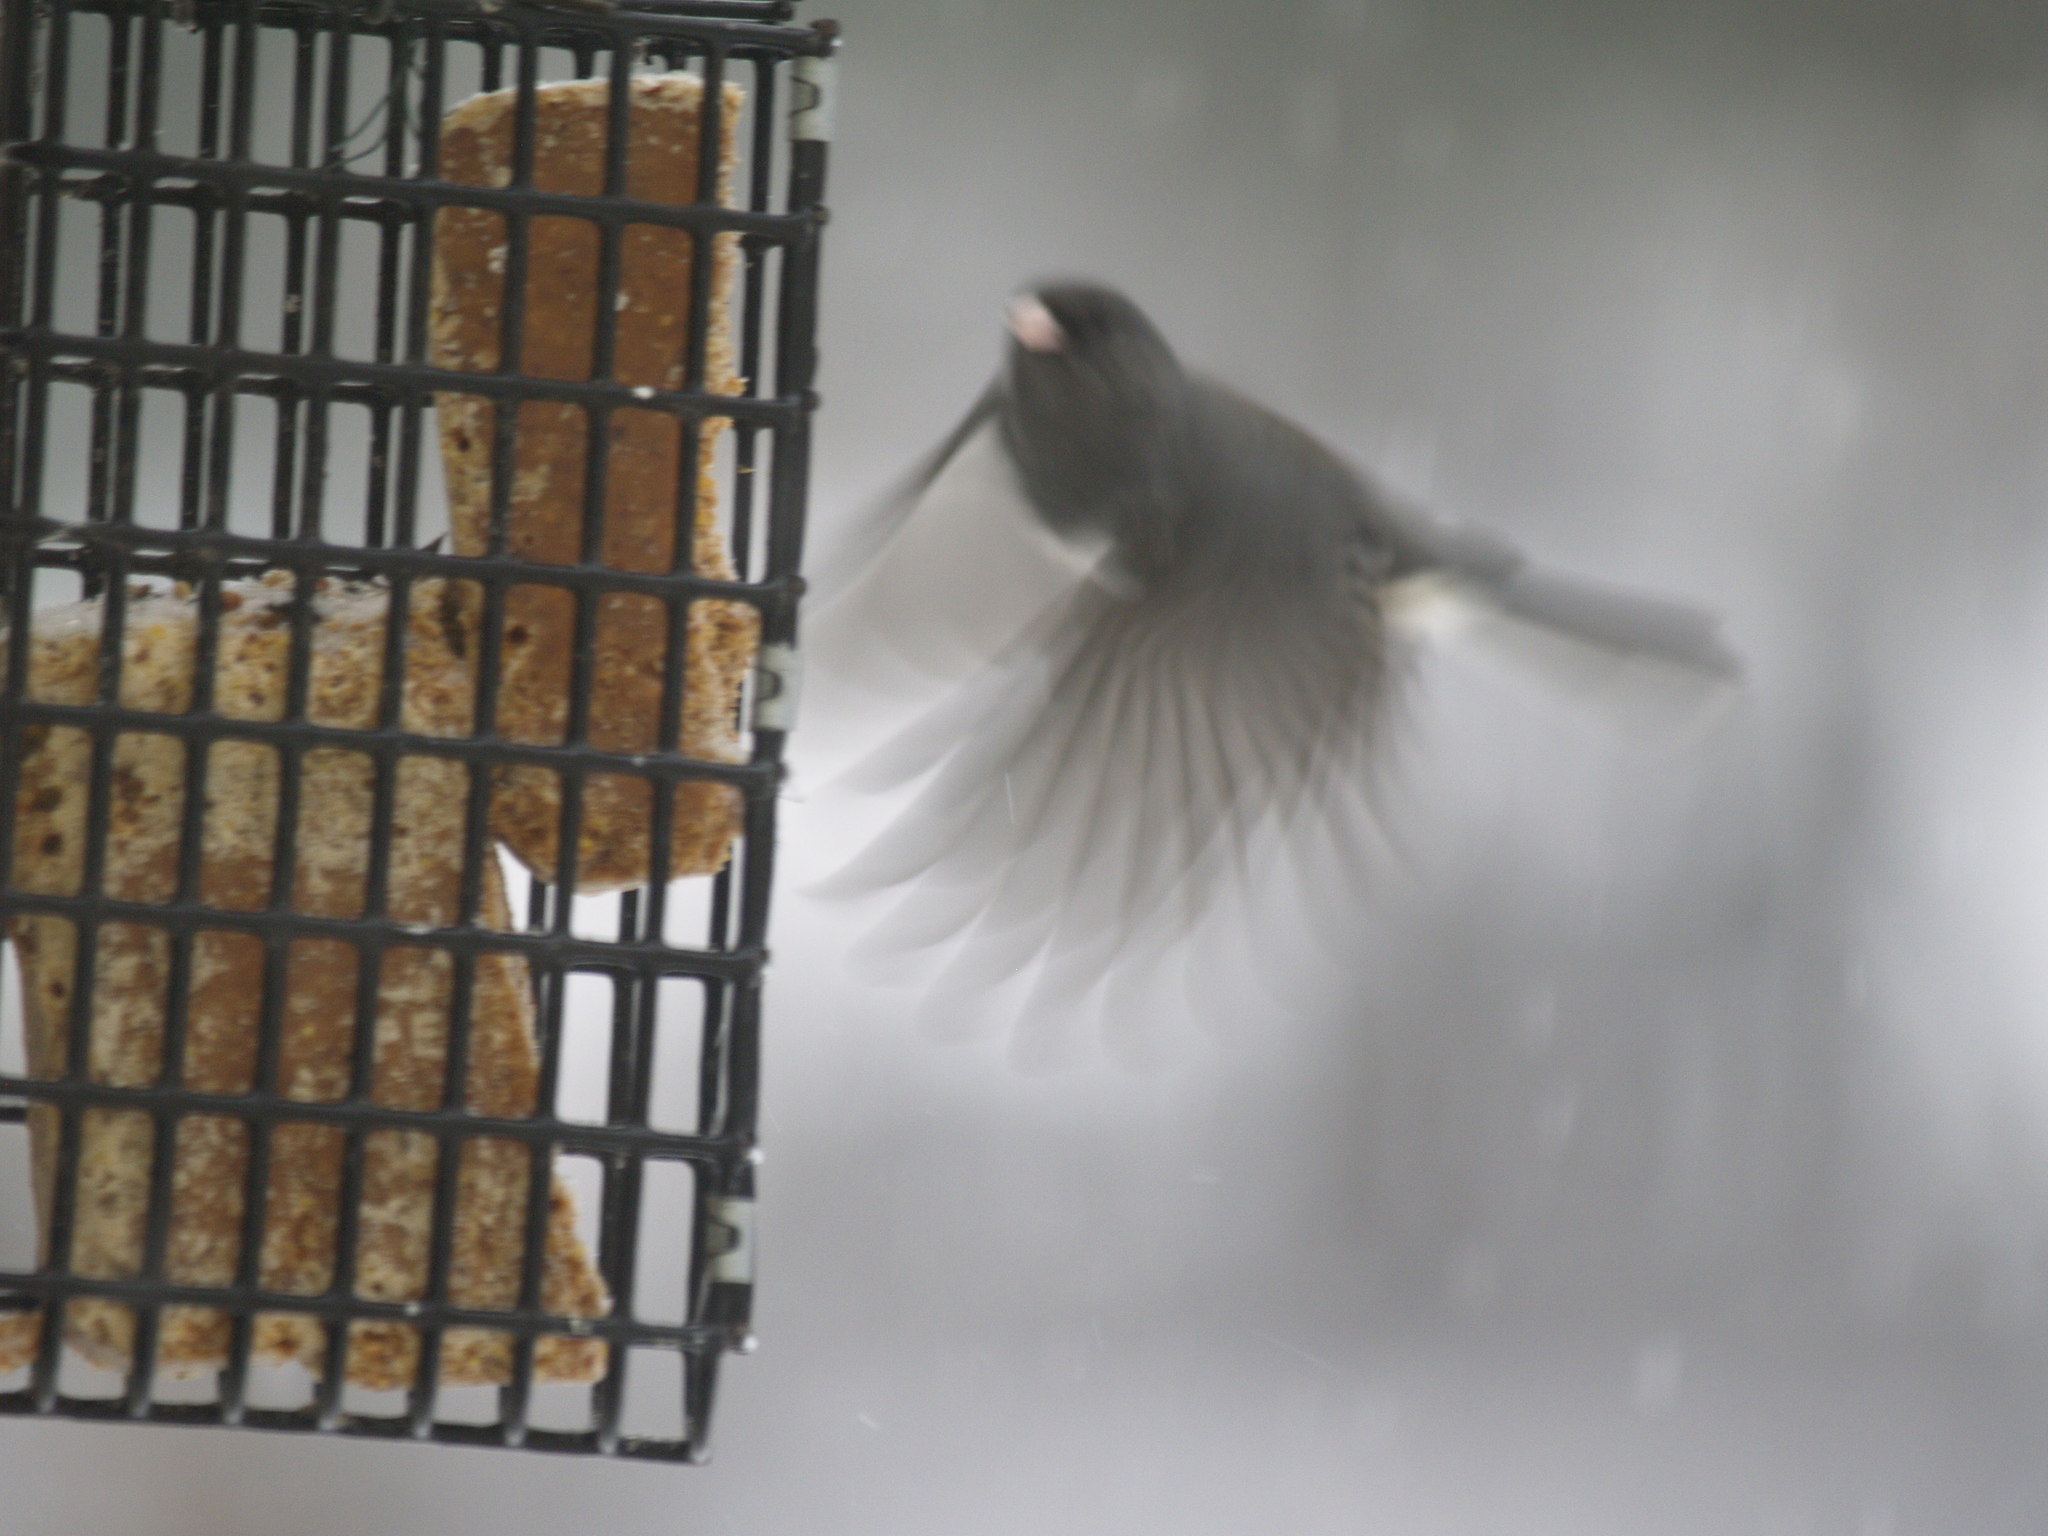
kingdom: Animalia
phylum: Chordata
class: Aves
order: Passeriformes
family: Passerellidae
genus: Junco
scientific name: Junco hyemalis
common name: Dark-eyed junco
